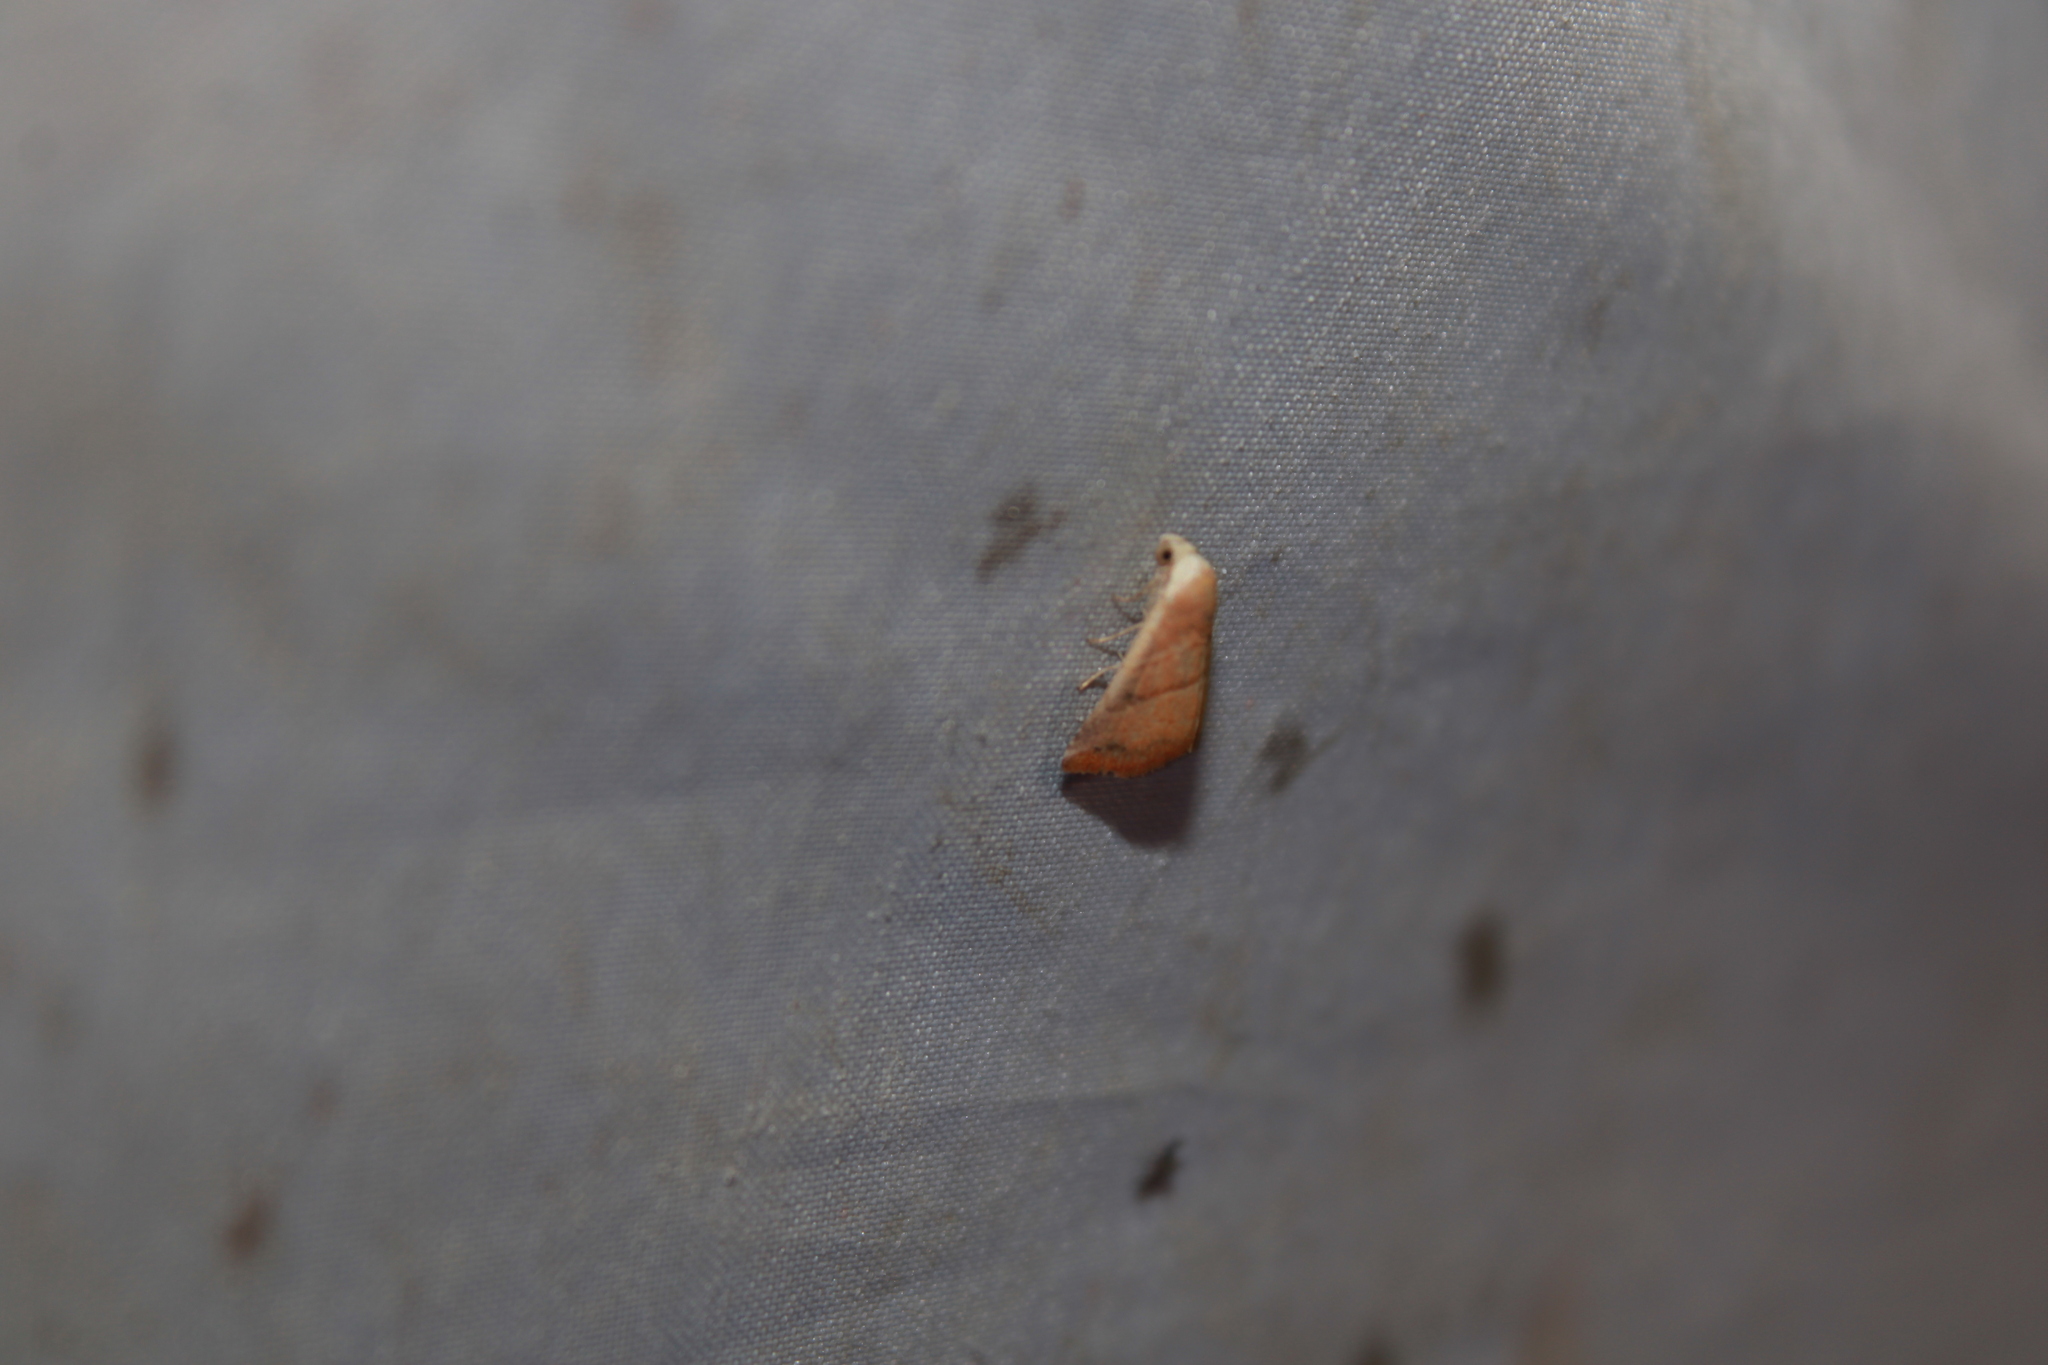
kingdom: Animalia
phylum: Arthropoda
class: Insecta
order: Lepidoptera
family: Noctuidae
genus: Eublemma
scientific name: Eublemma cinnamomea
